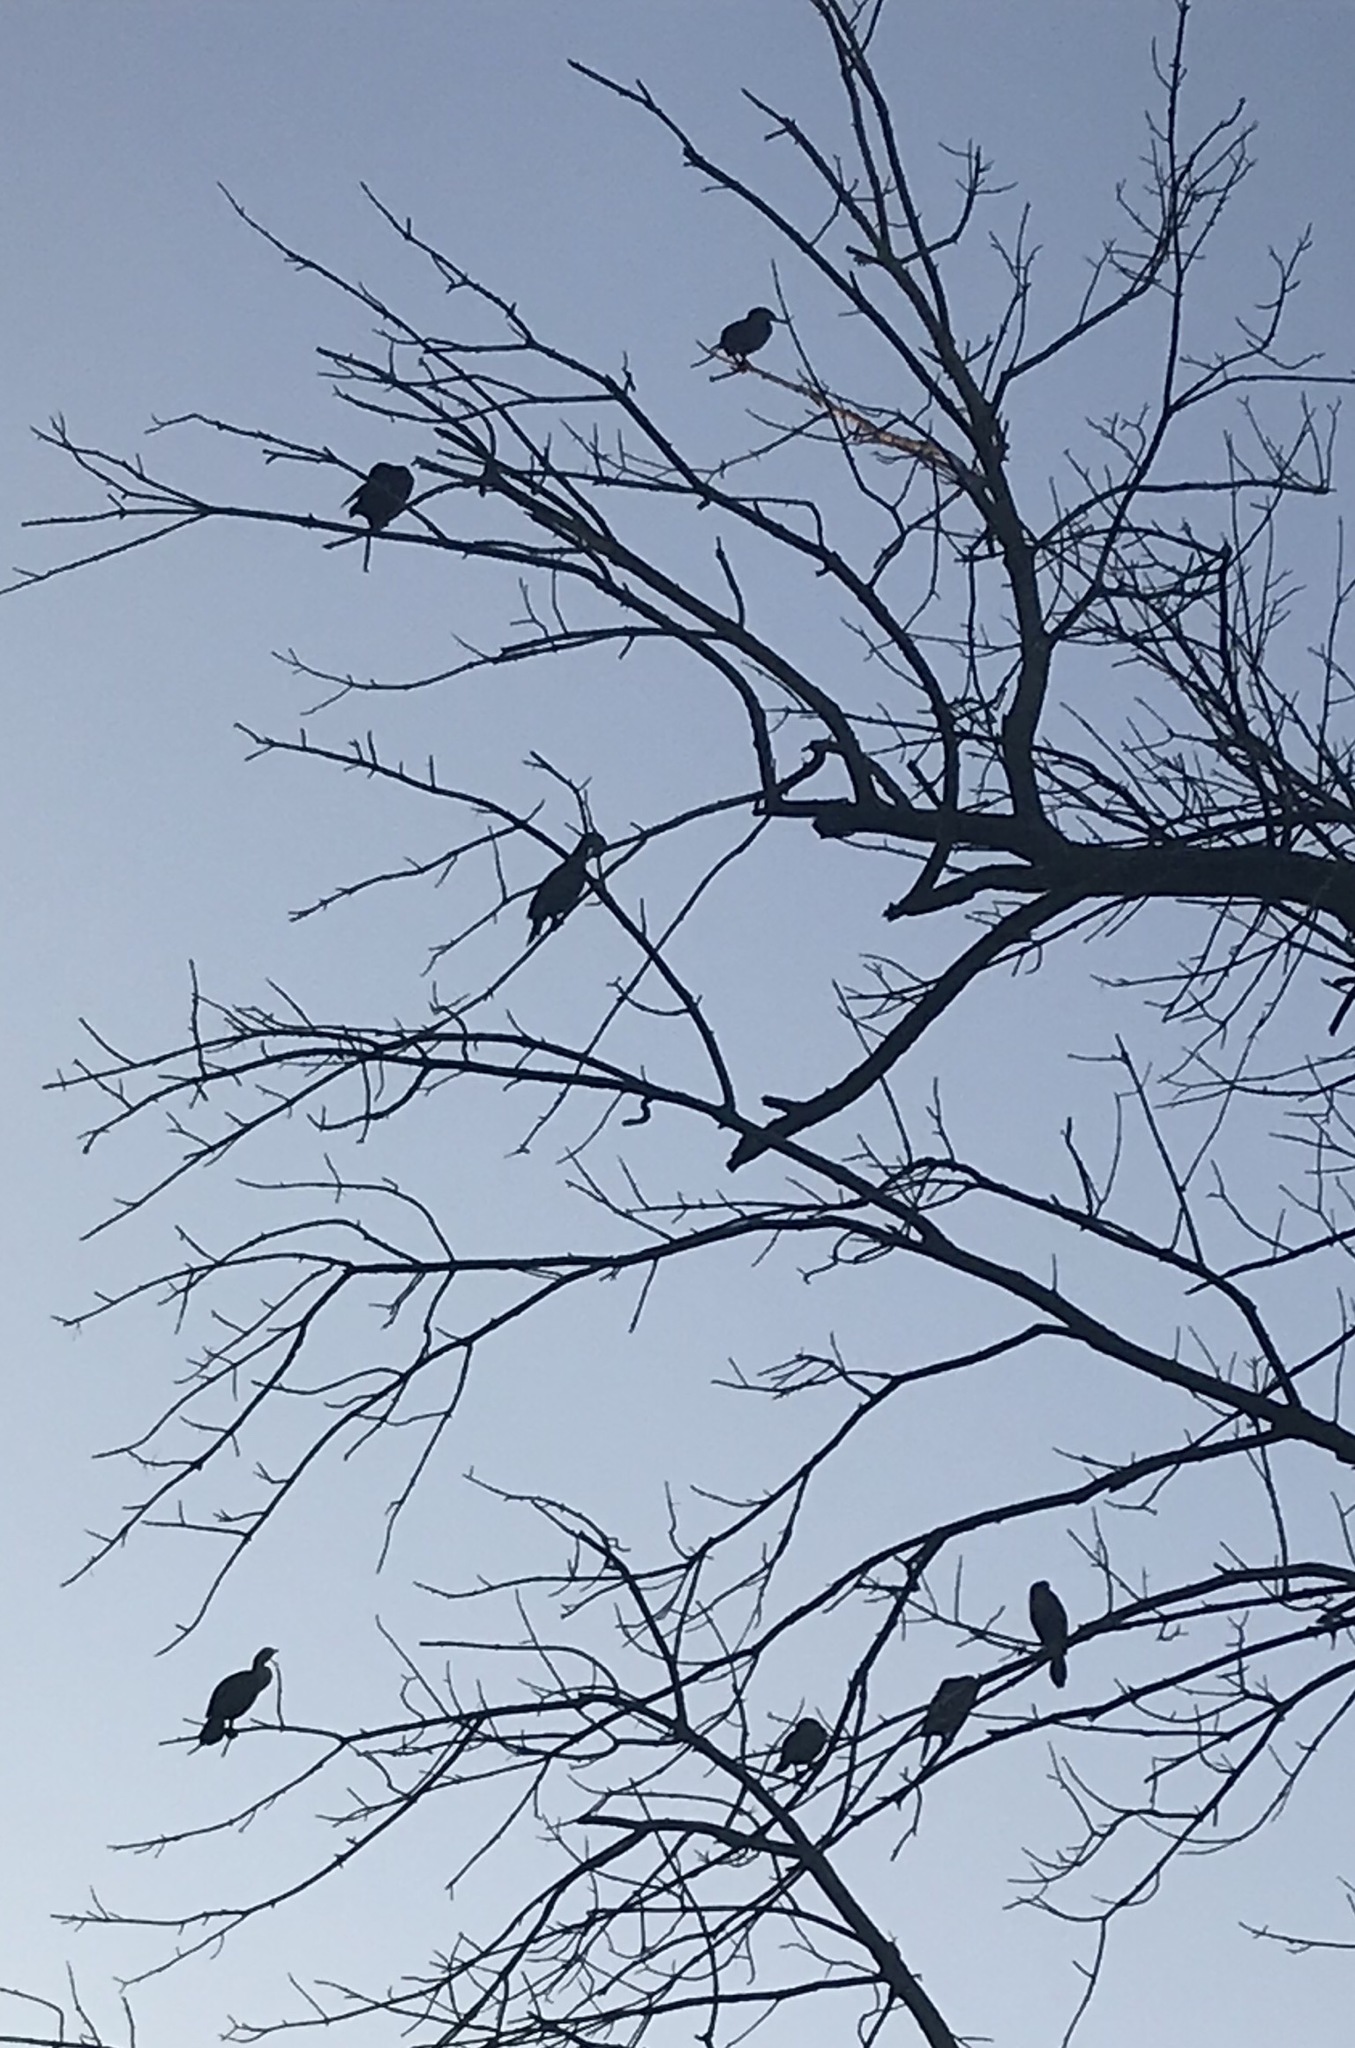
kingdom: Animalia
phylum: Chordata
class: Aves
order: Suliformes
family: Phalacrocoracidae
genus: Phalacrocorax
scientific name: Phalacrocorax auritus
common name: Double-crested cormorant
